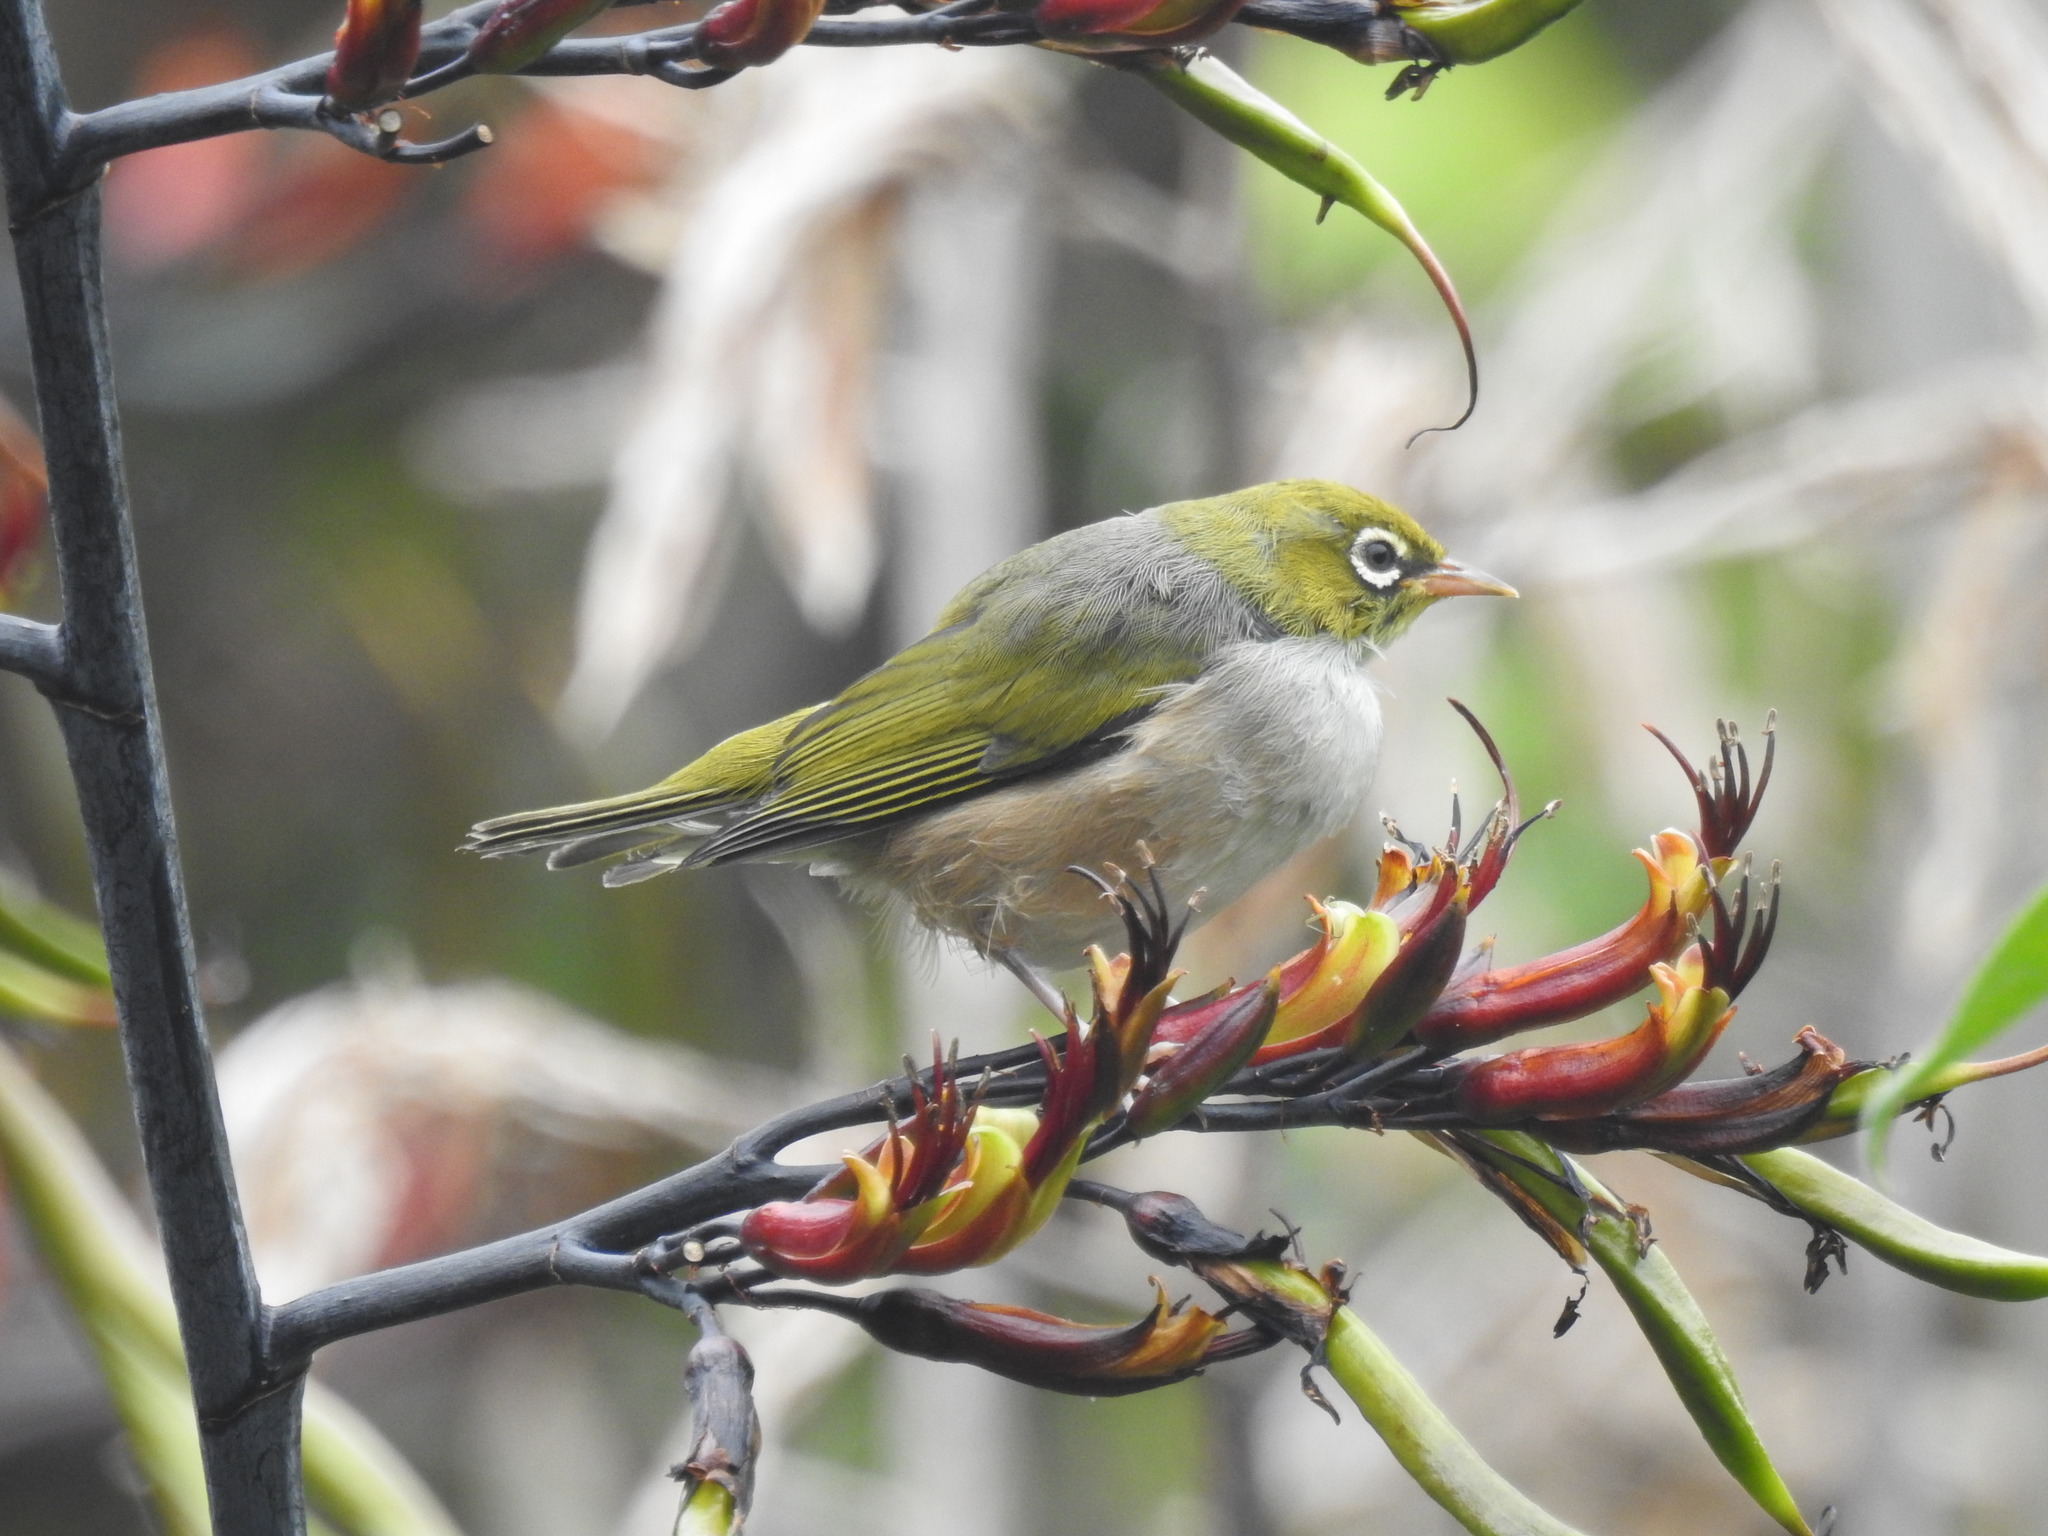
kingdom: Animalia
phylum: Chordata
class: Aves
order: Passeriformes
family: Zosteropidae
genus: Zosterops
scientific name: Zosterops lateralis
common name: Silvereye
